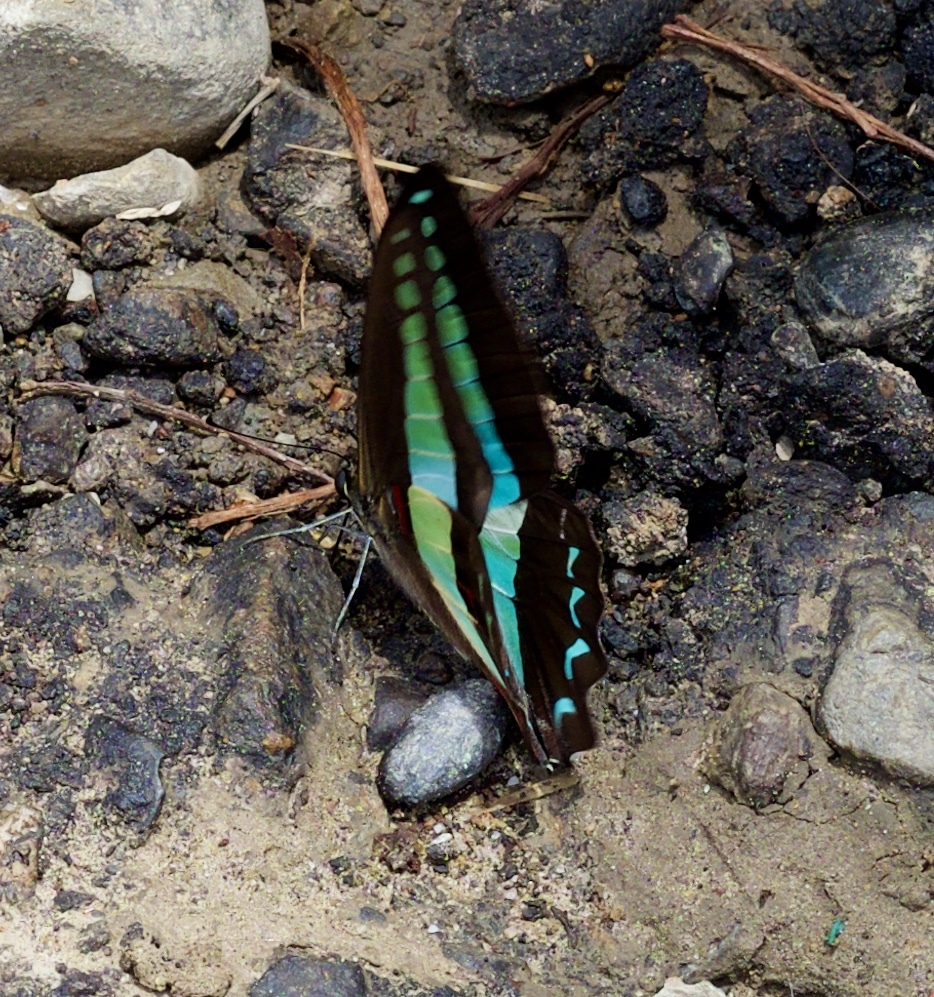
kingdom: Fungi
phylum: Ascomycota
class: Sordariomycetes
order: Microascales
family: Microascaceae
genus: Graphium
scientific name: Graphium sarpedon
